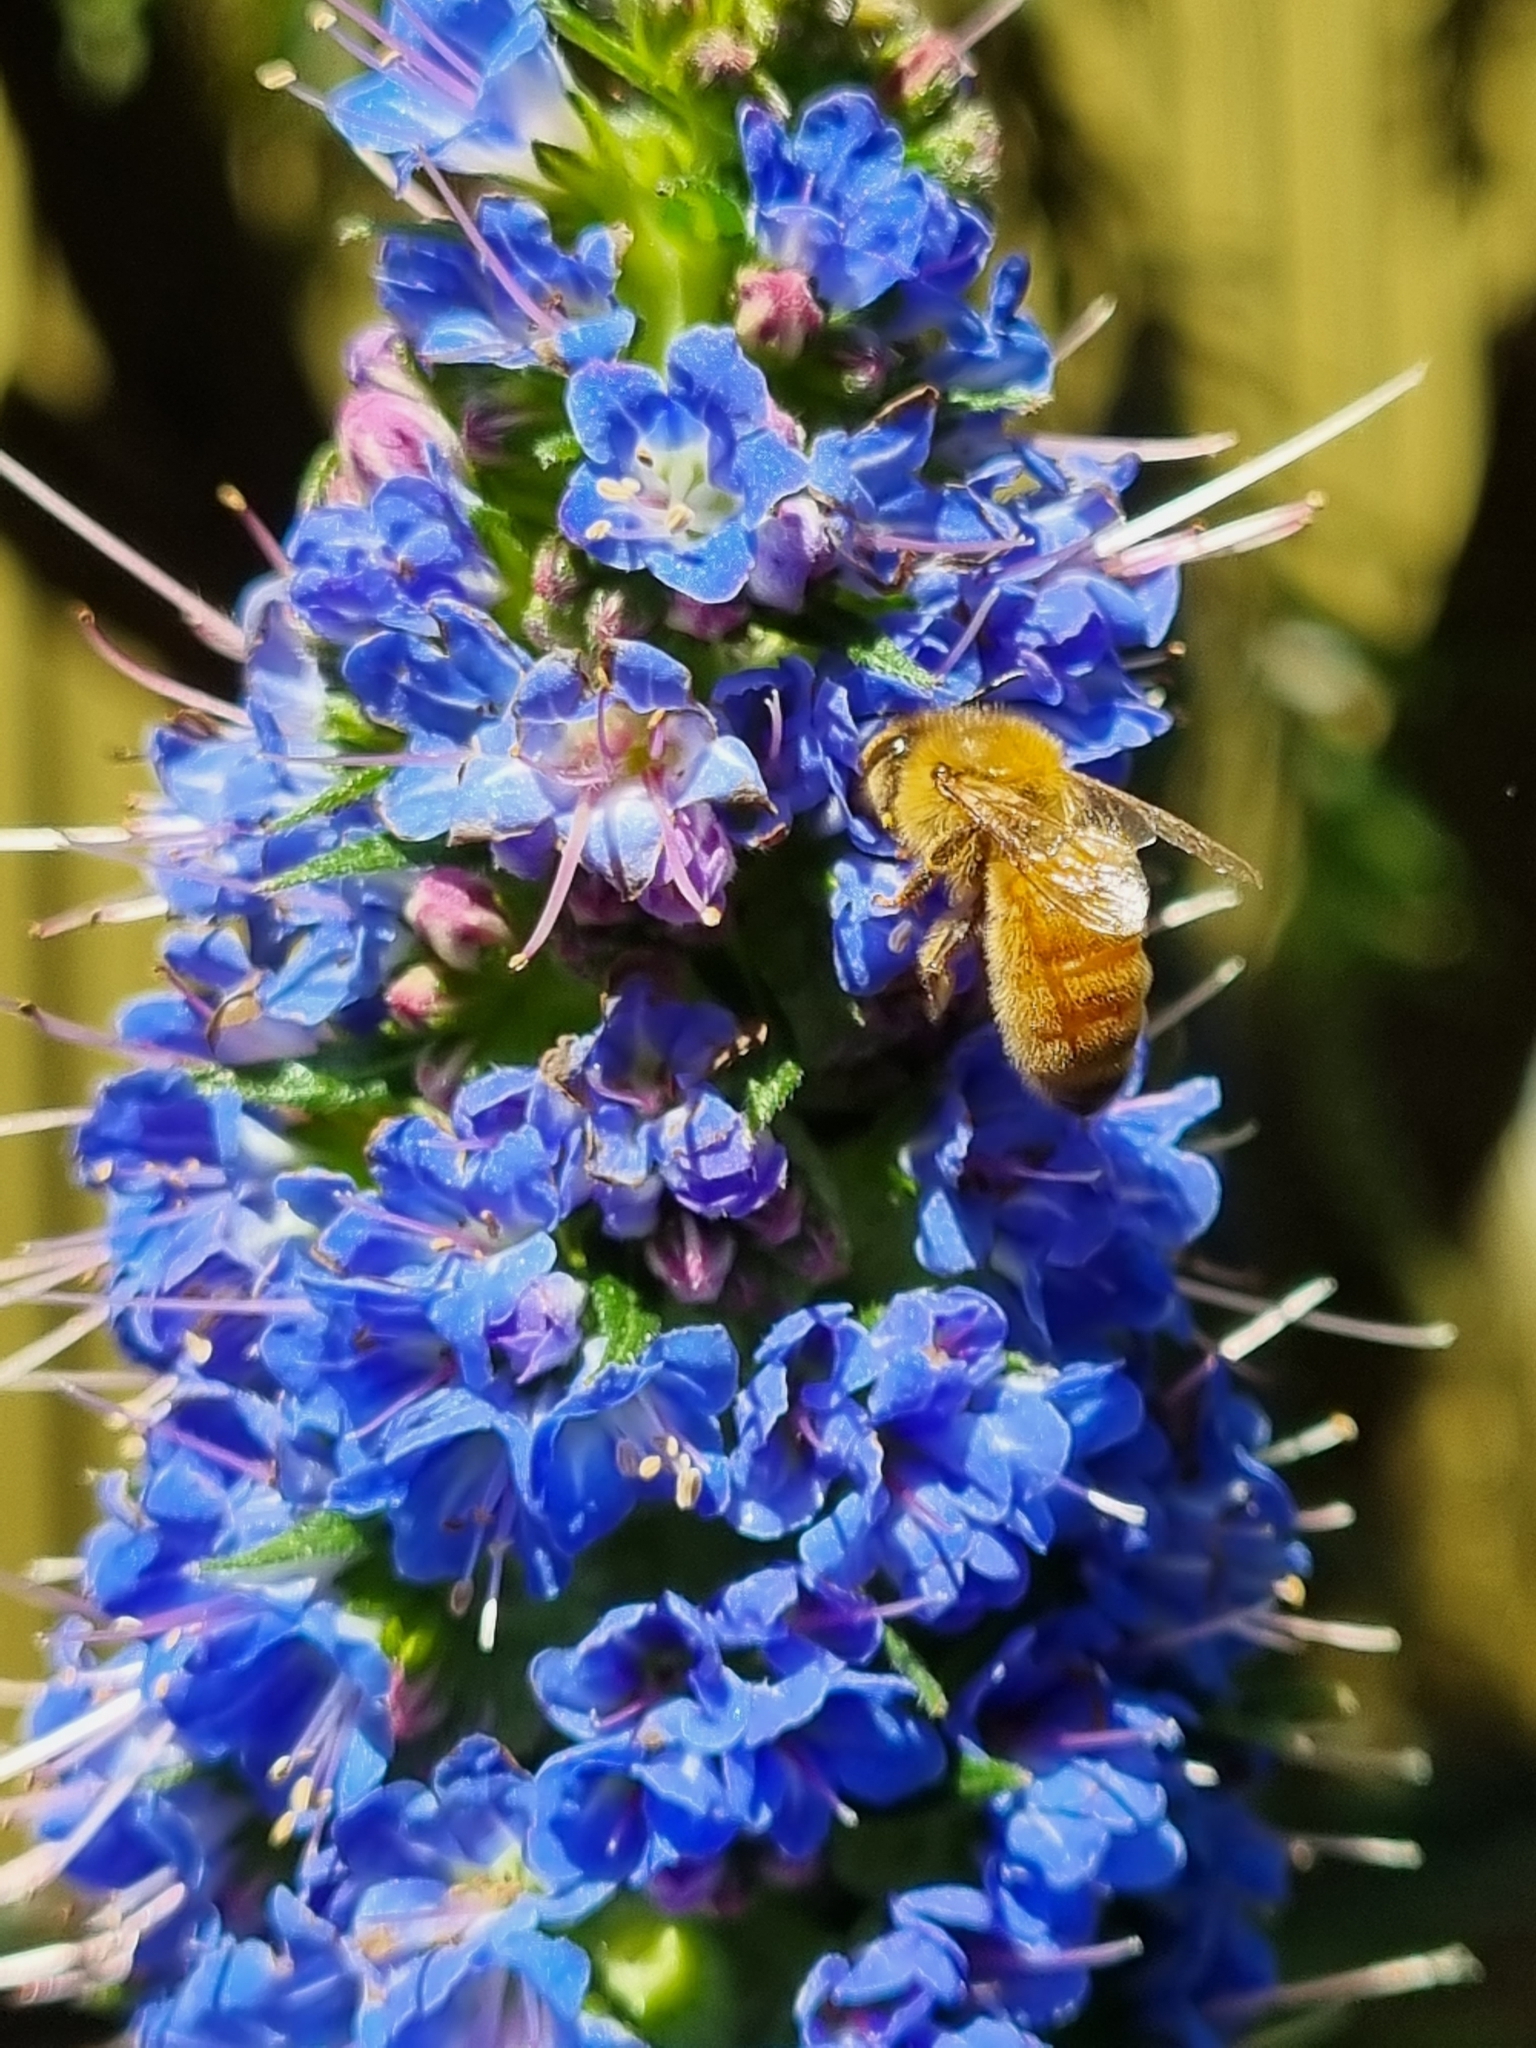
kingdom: Animalia
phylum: Arthropoda
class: Insecta
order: Hymenoptera
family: Apidae
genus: Apis
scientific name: Apis mellifera
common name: Honey bee
